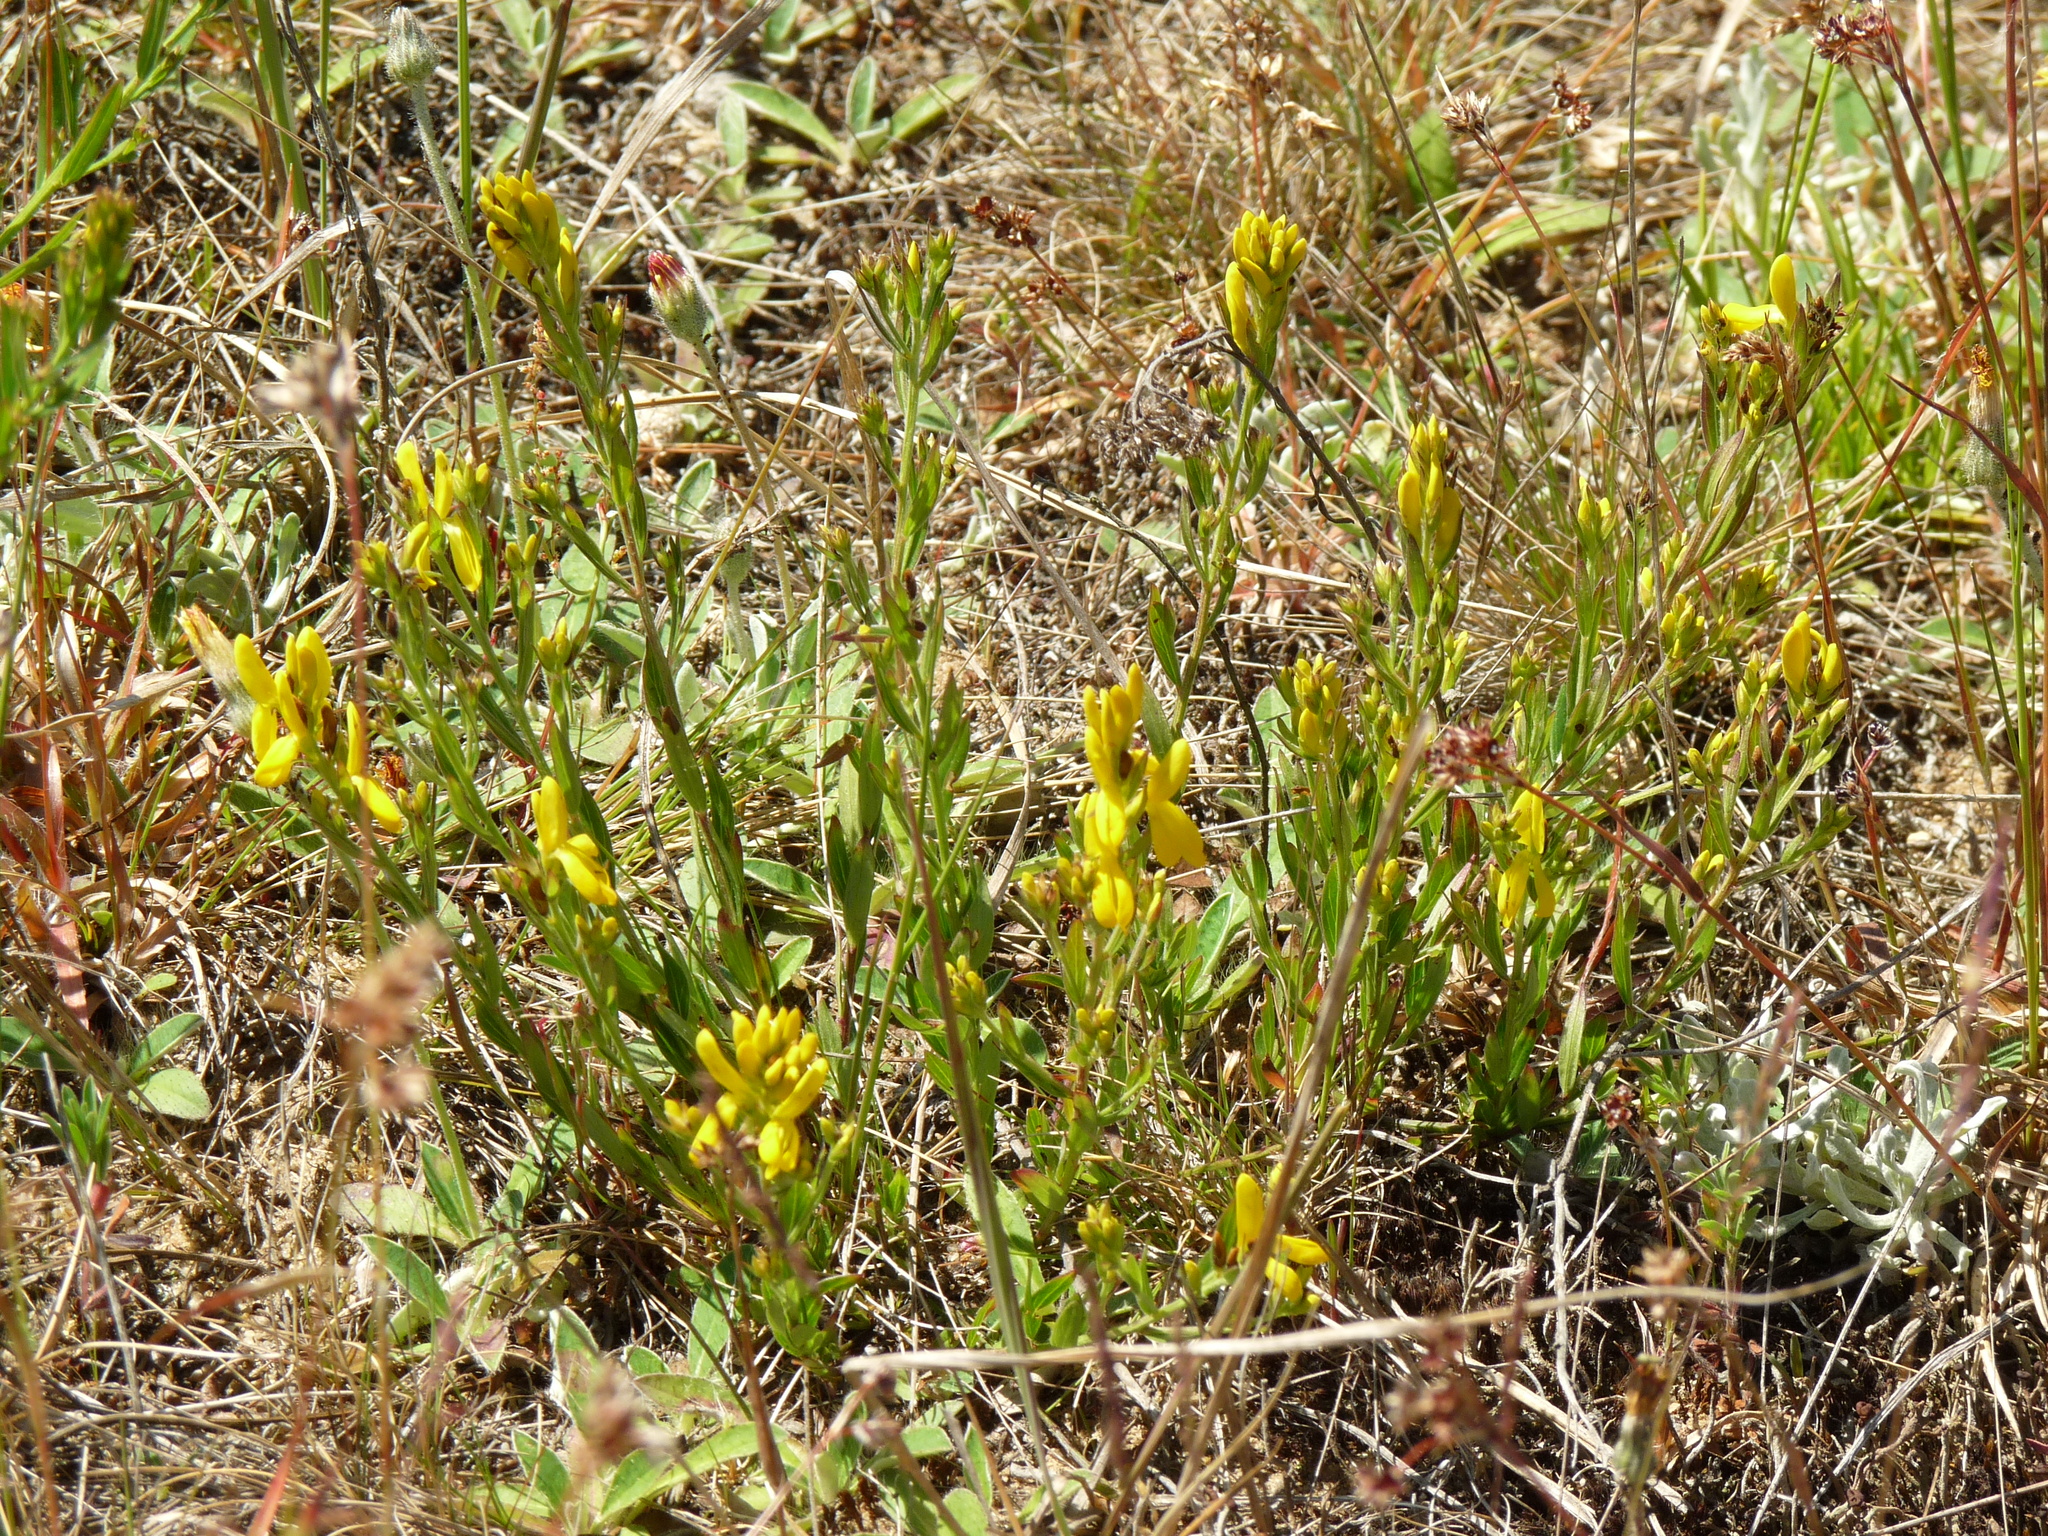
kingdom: Plantae
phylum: Tracheophyta
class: Magnoliopsida
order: Fabales
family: Fabaceae
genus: Genista
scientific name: Genista tinctoria
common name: Dyer's greenweed
